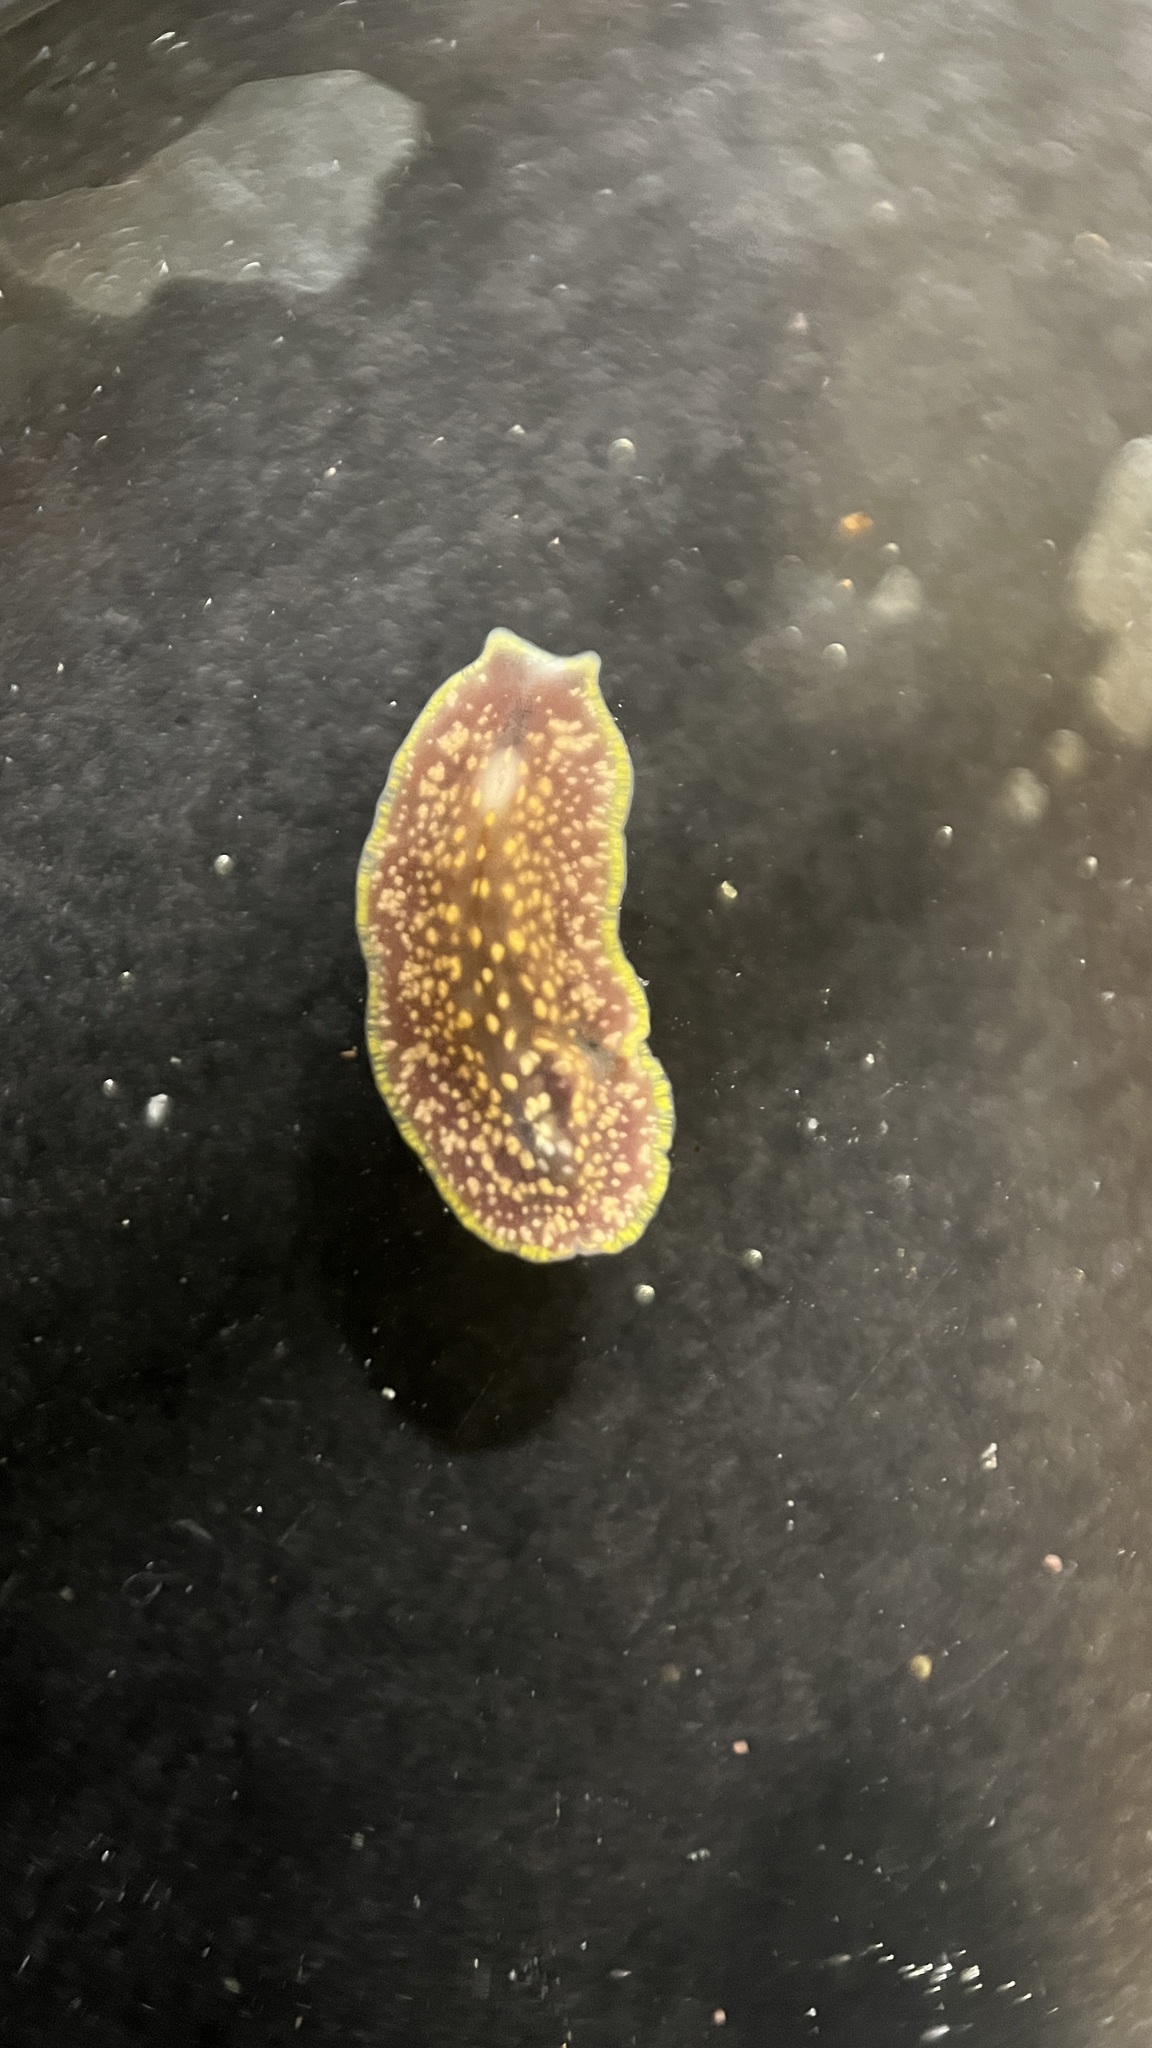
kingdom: Animalia
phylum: Platyhelminthes
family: Stylostomidae
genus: Cycloporus
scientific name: Cycloporus variegatus
